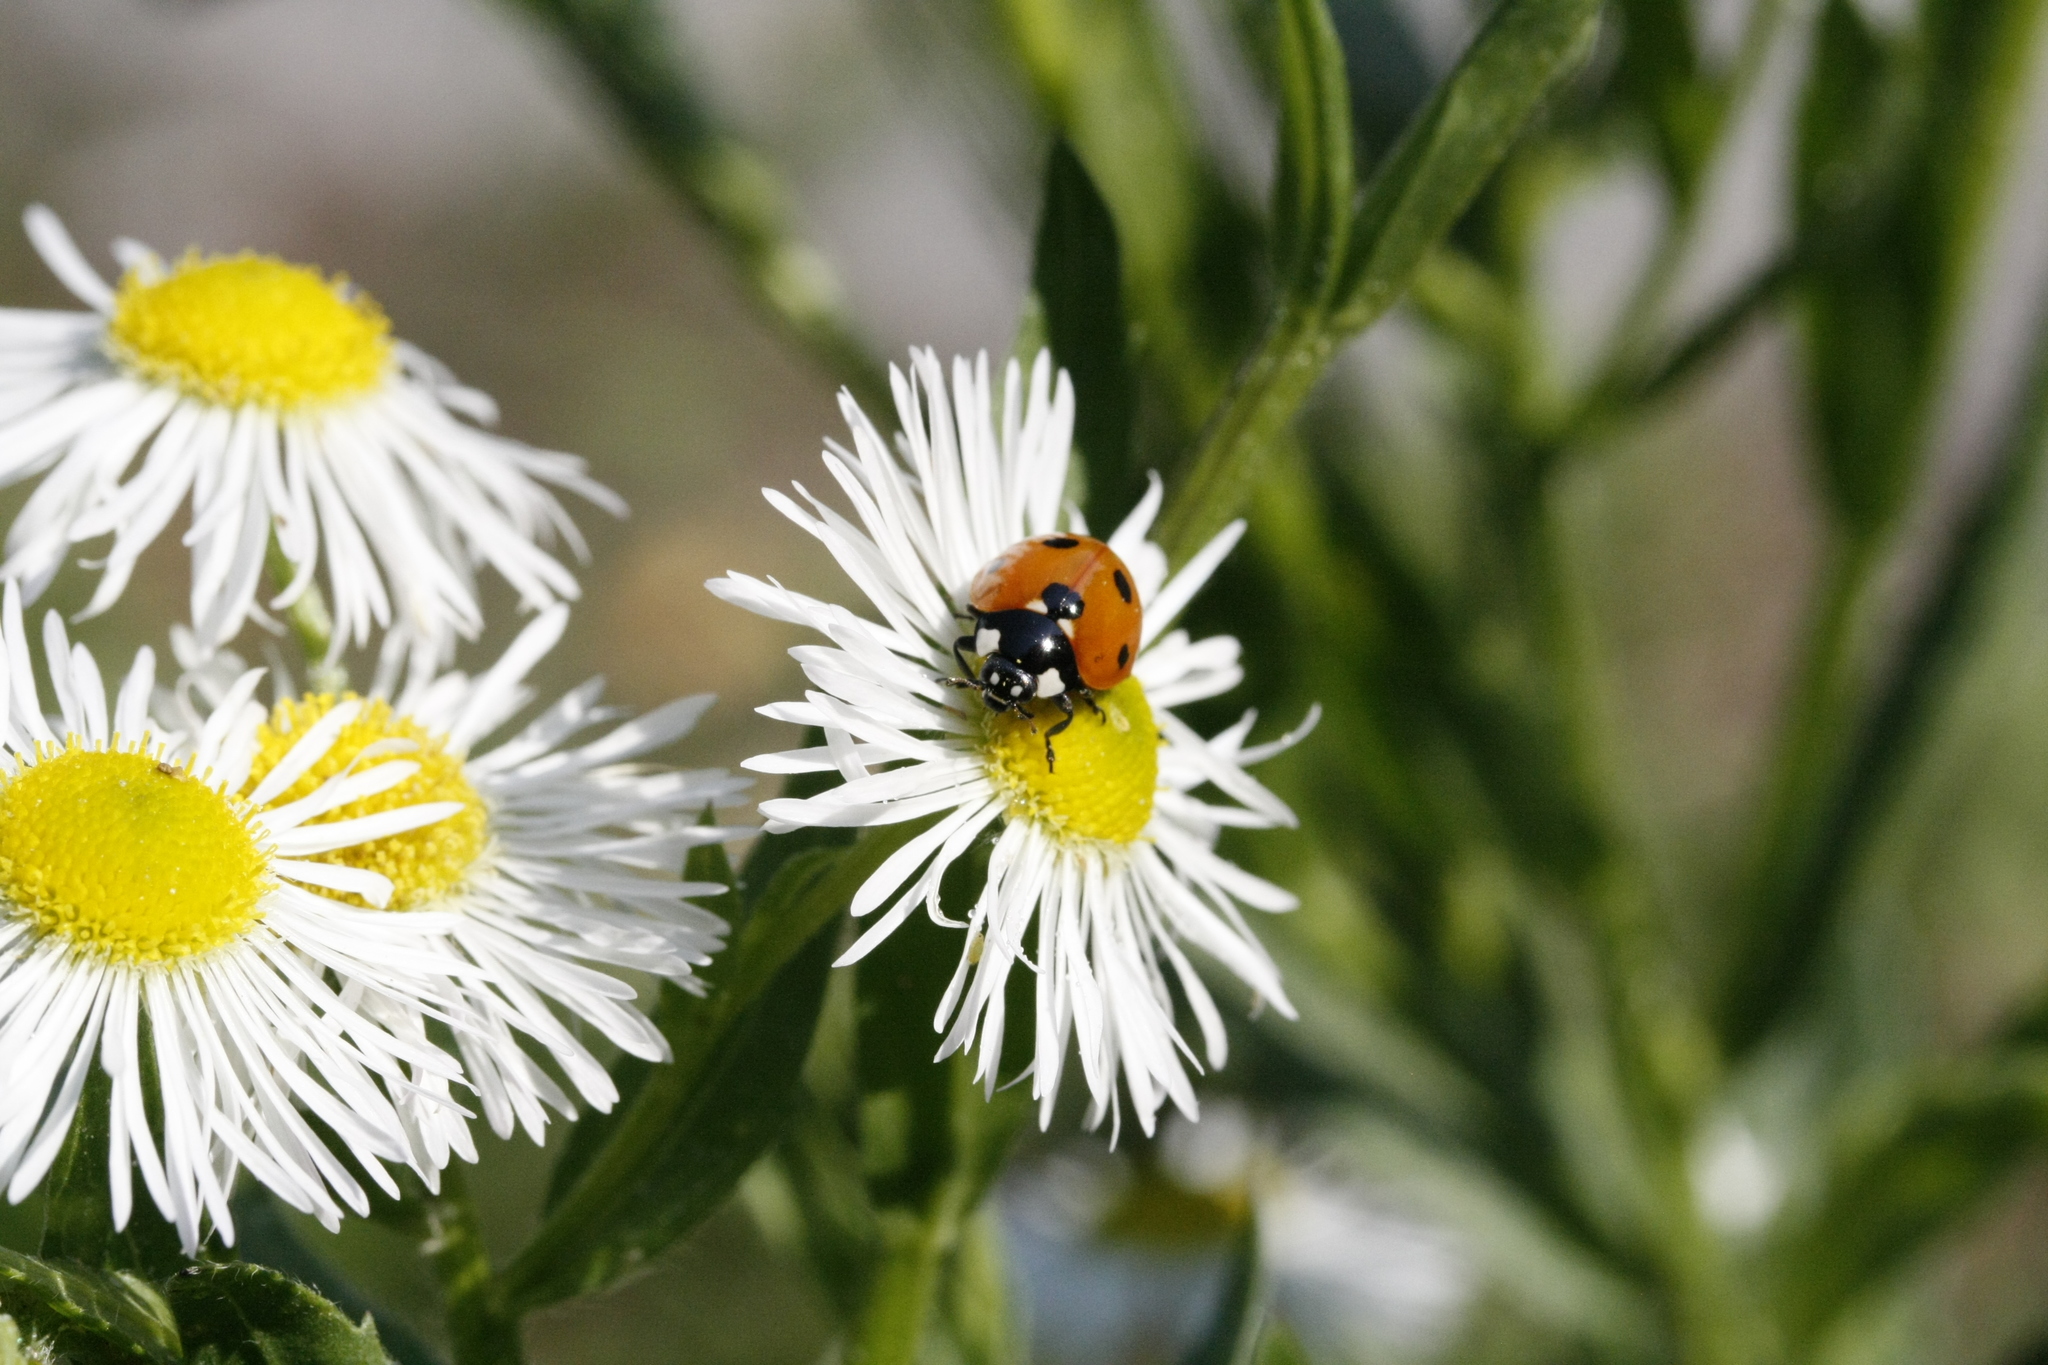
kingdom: Animalia
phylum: Arthropoda
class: Insecta
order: Coleoptera
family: Coccinellidae
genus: Coccinella
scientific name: Coccinella septempunctata
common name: Sevenspotted lady beetle
